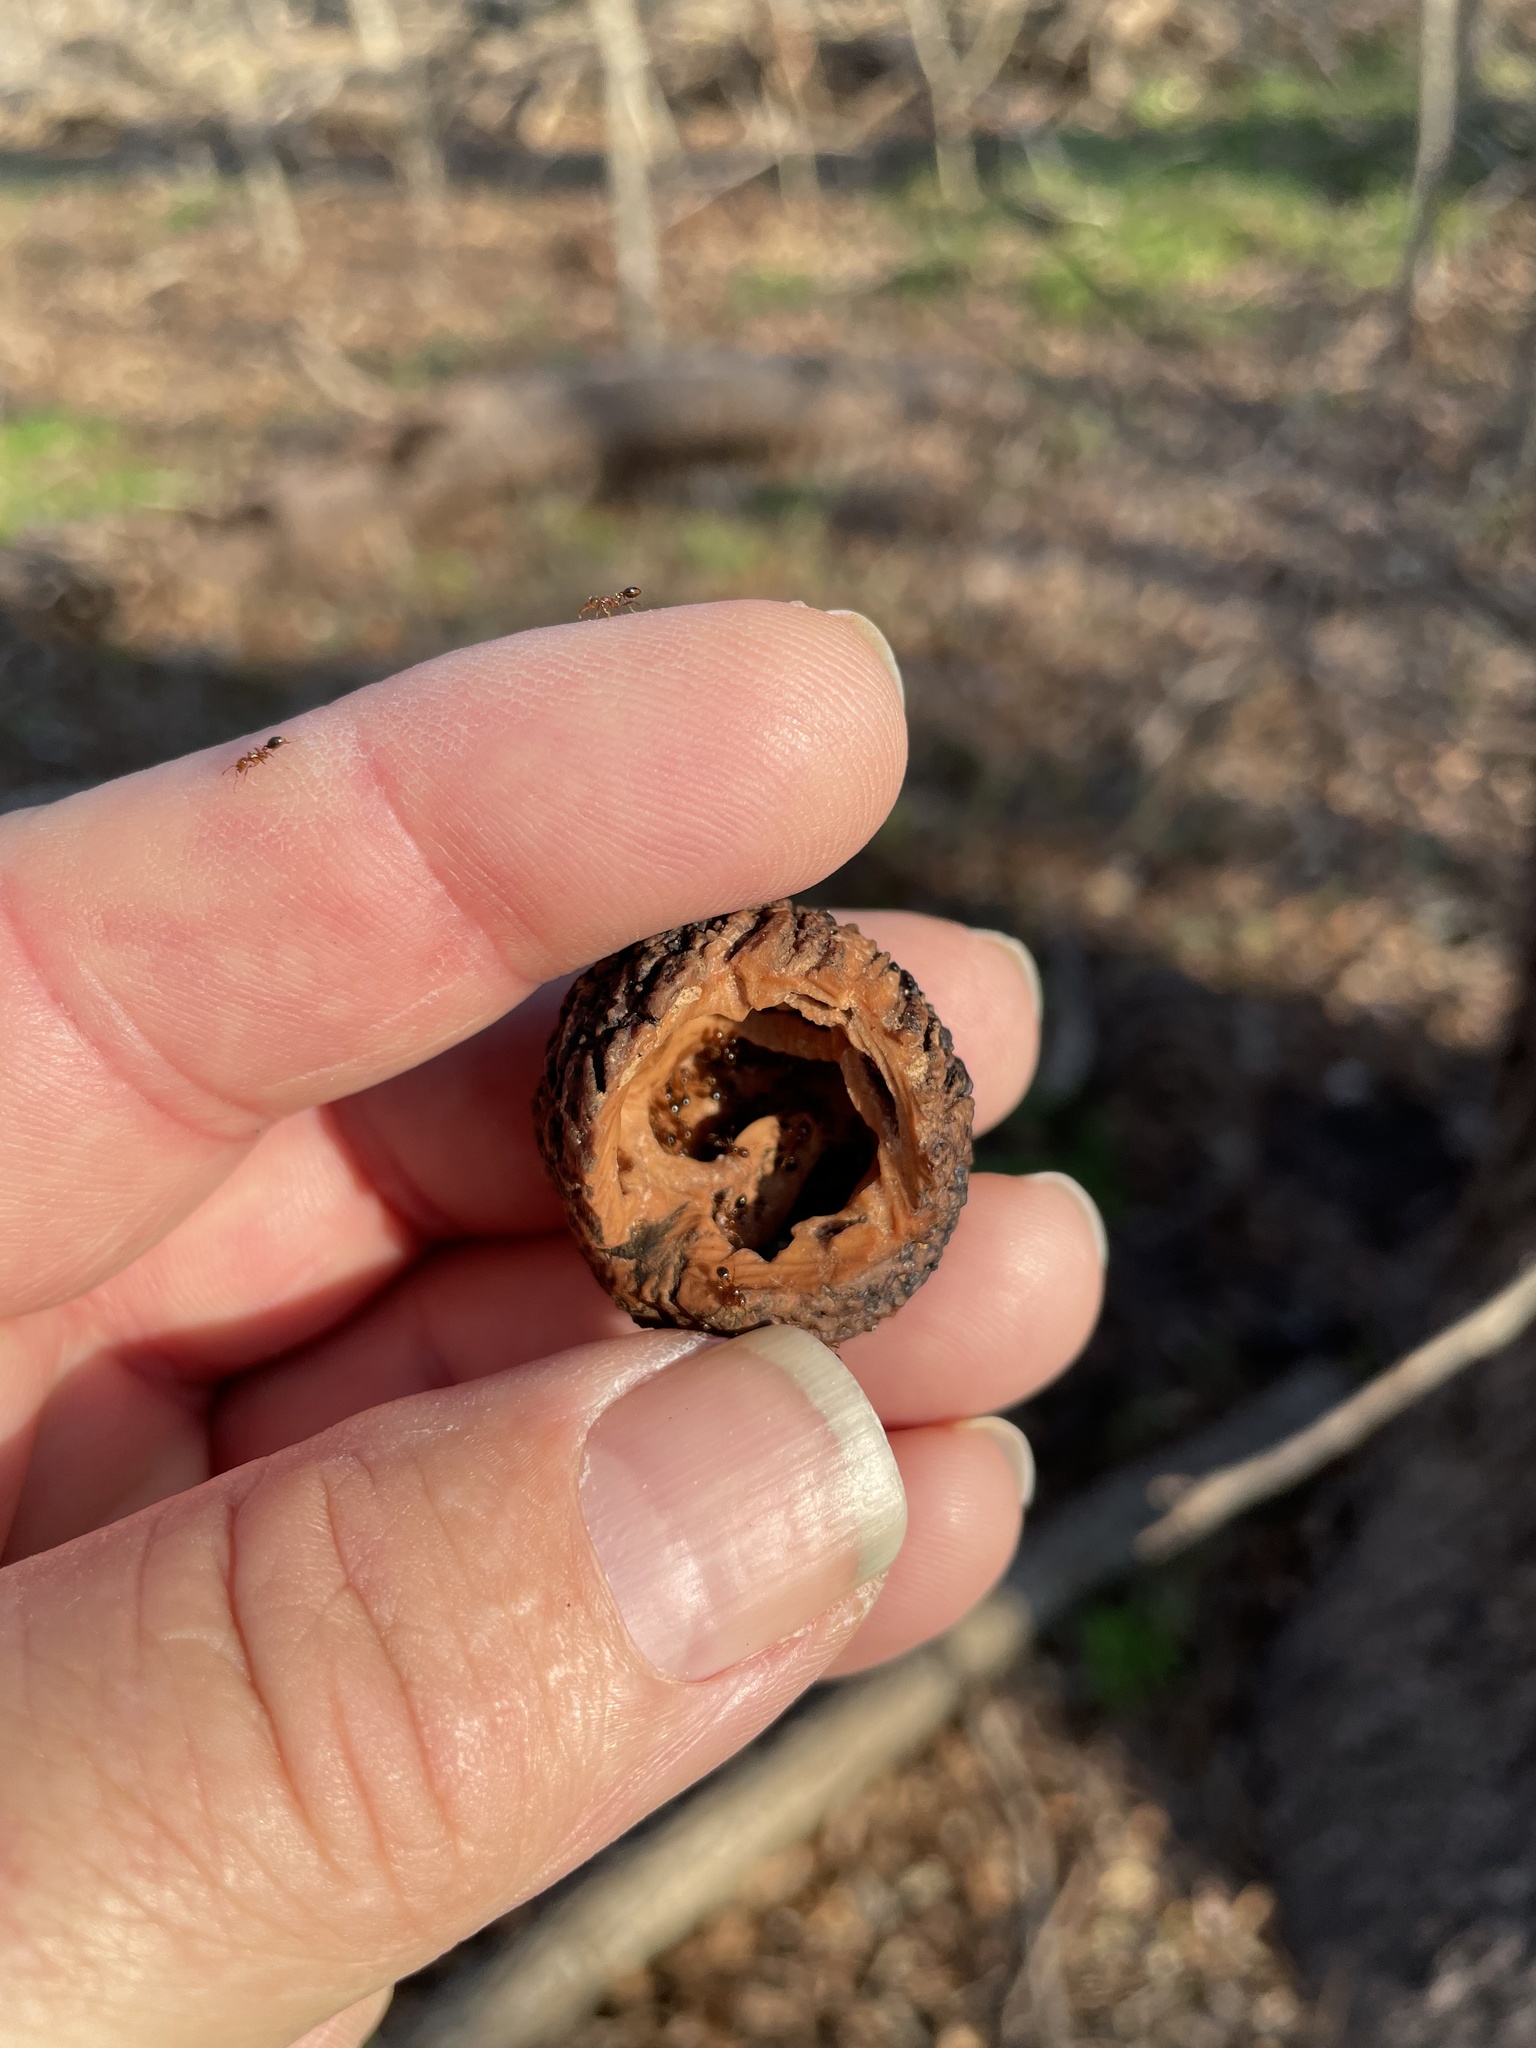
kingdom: Plantae
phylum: Tracheophyta
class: Magnoliopsida
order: Fagales
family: Juglandaceae
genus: Juglans
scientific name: Juglans nigra
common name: Black walnut
